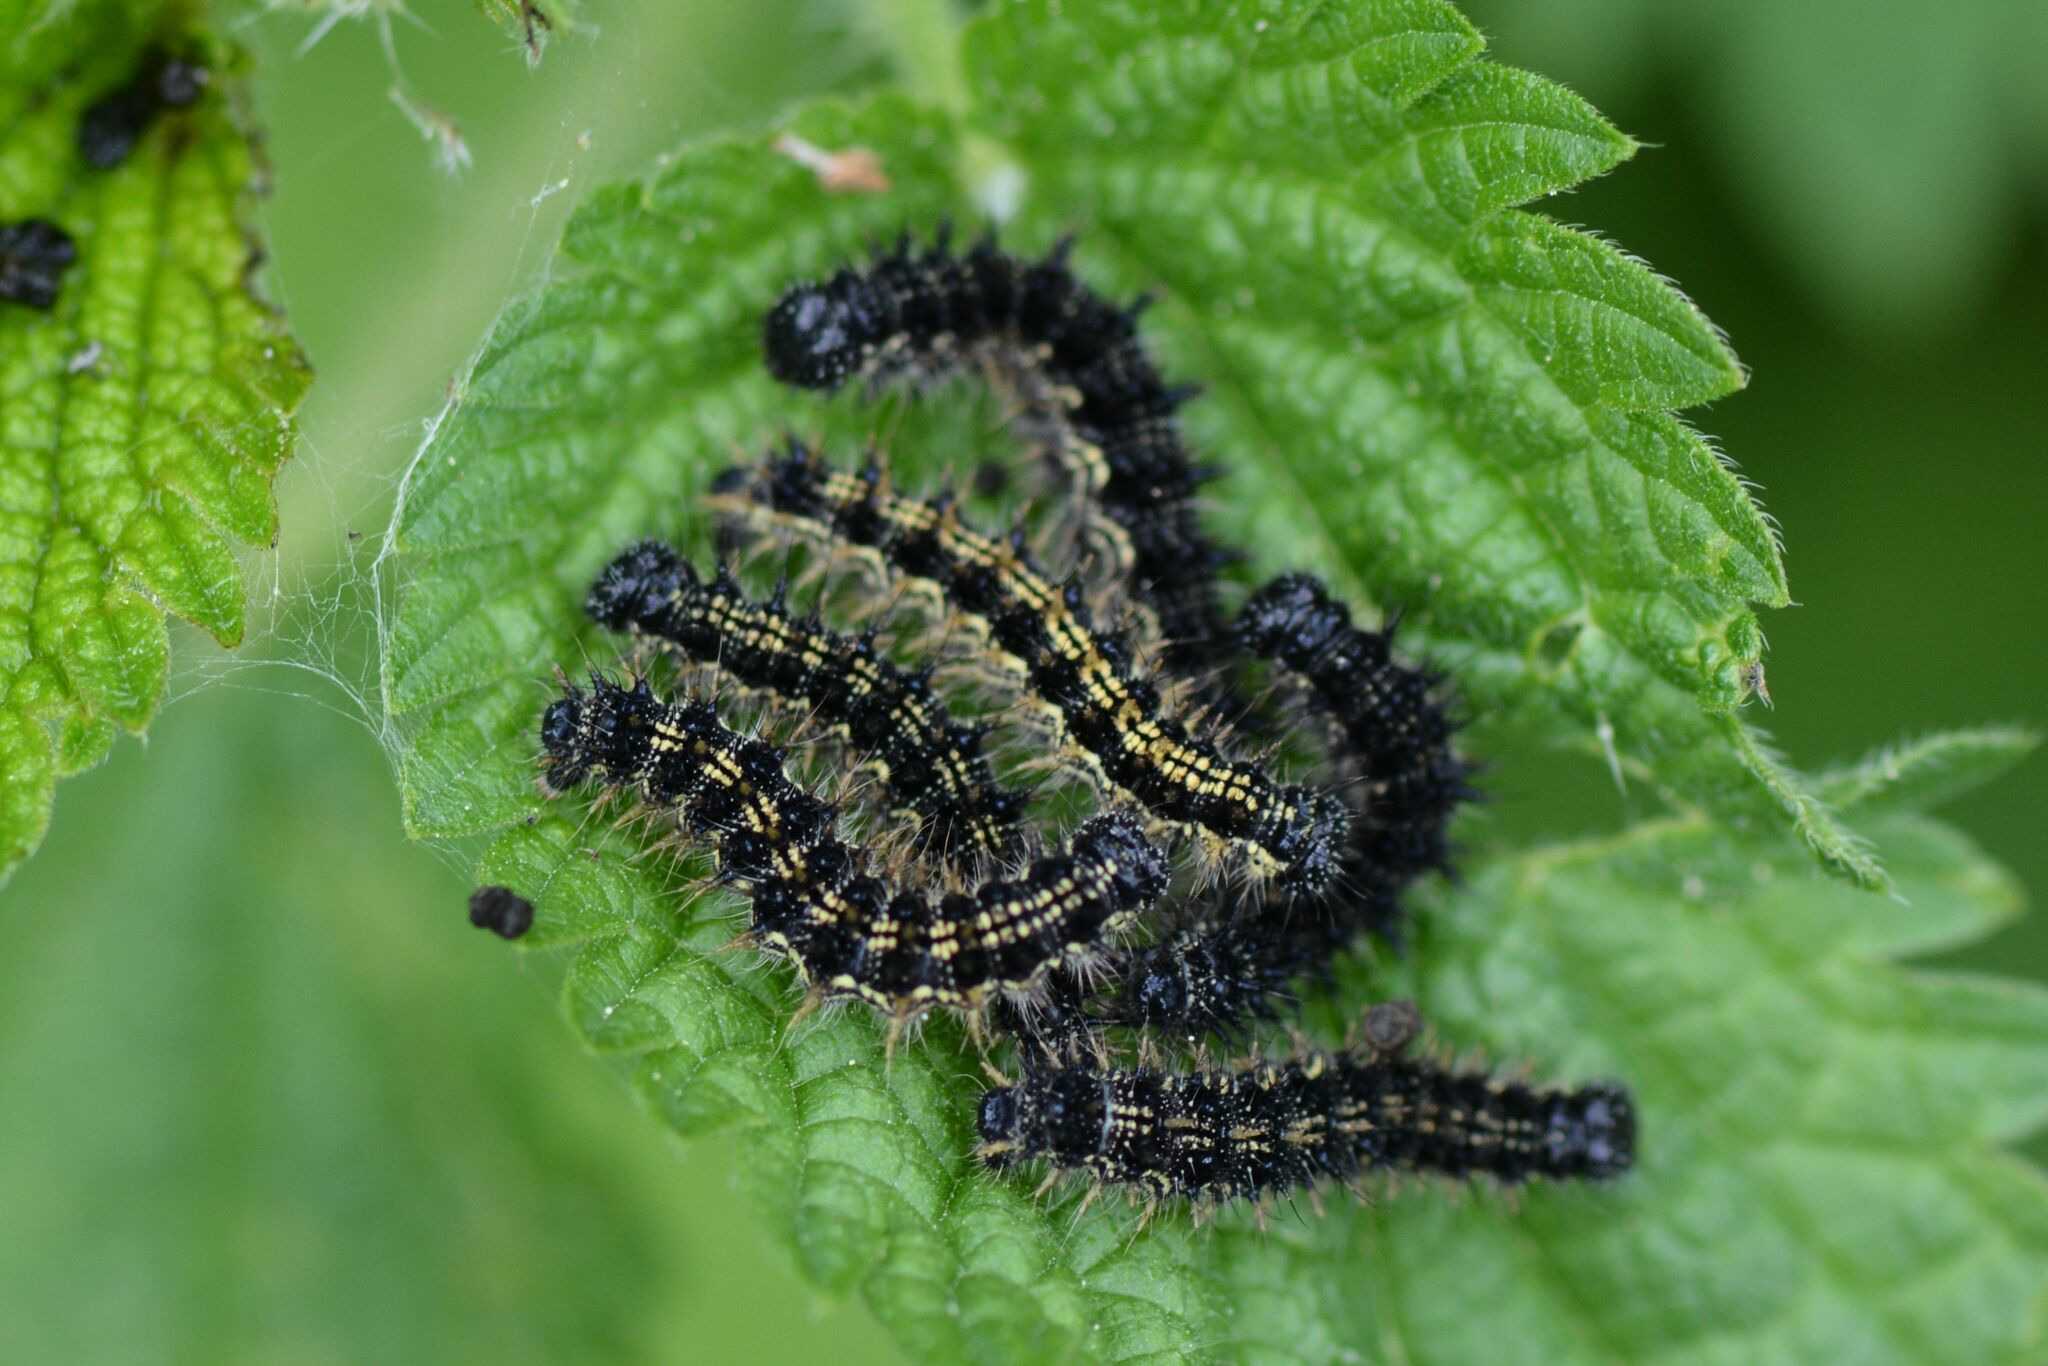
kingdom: Animalia
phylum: Arthropoda
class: Insecta
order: Lepidoptera
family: Nymphalidae
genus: Aglais
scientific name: Aglais urticae
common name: Small tortoiseshell
